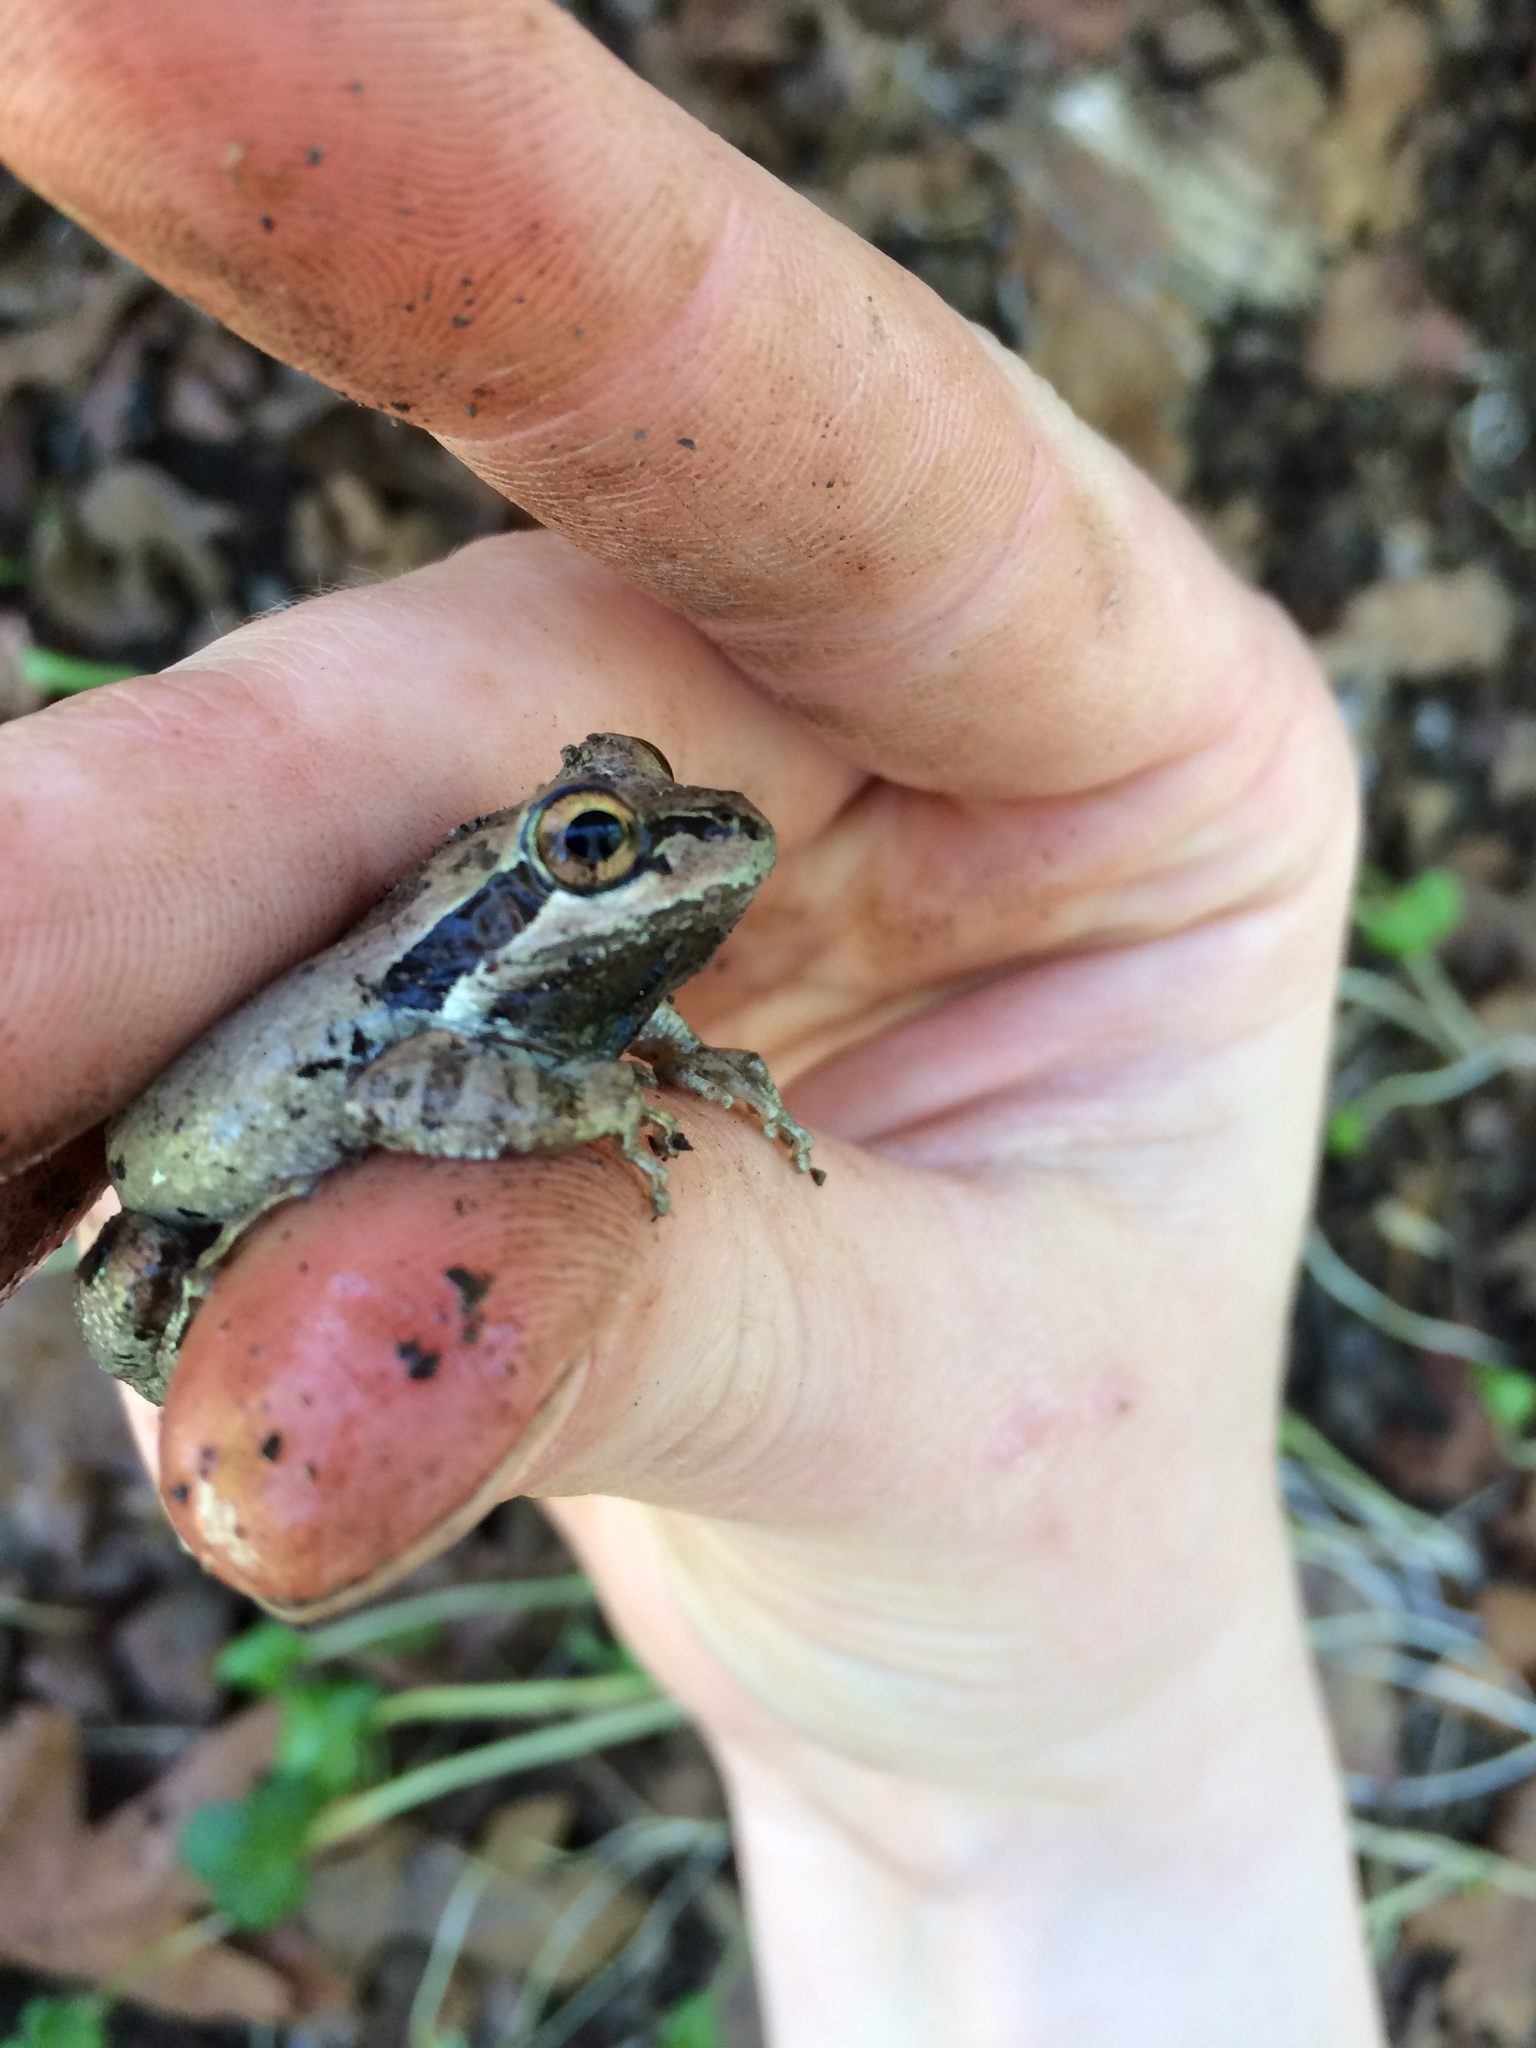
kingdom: Animalia
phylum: Chordata
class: Amphibia
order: Anura
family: Hylidae
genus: Pseudacris
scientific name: Pseudacris regilla
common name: Pacific chorus frog
